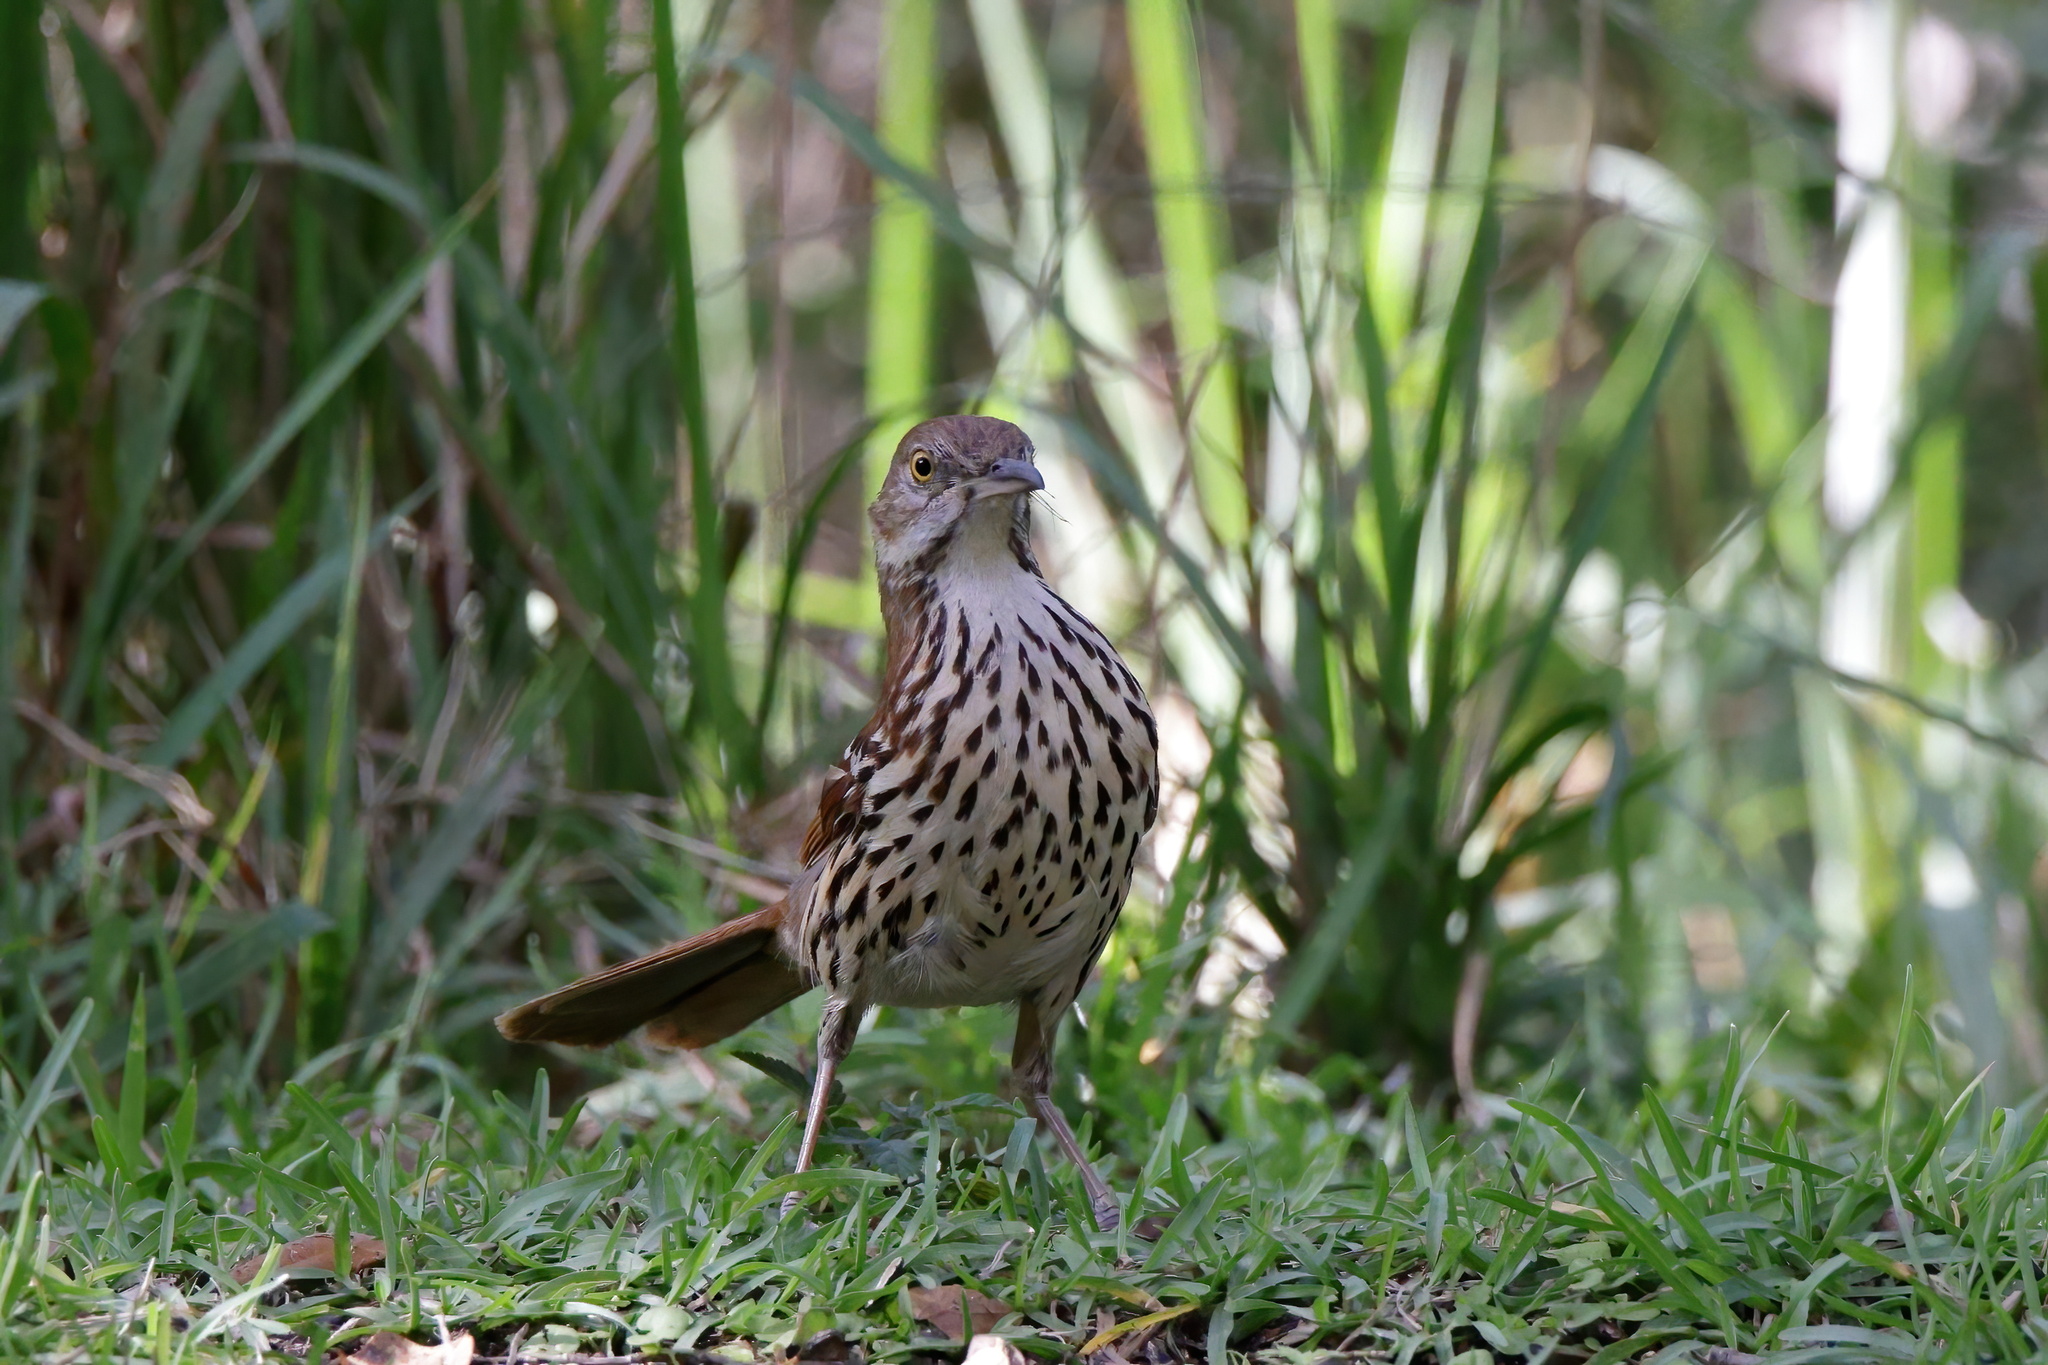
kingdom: Animalia
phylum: Chordata
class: Aves
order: Passeriformes
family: Mimidae
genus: Toxostoma
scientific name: Toxostoma rufum
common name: Brown thrasher
